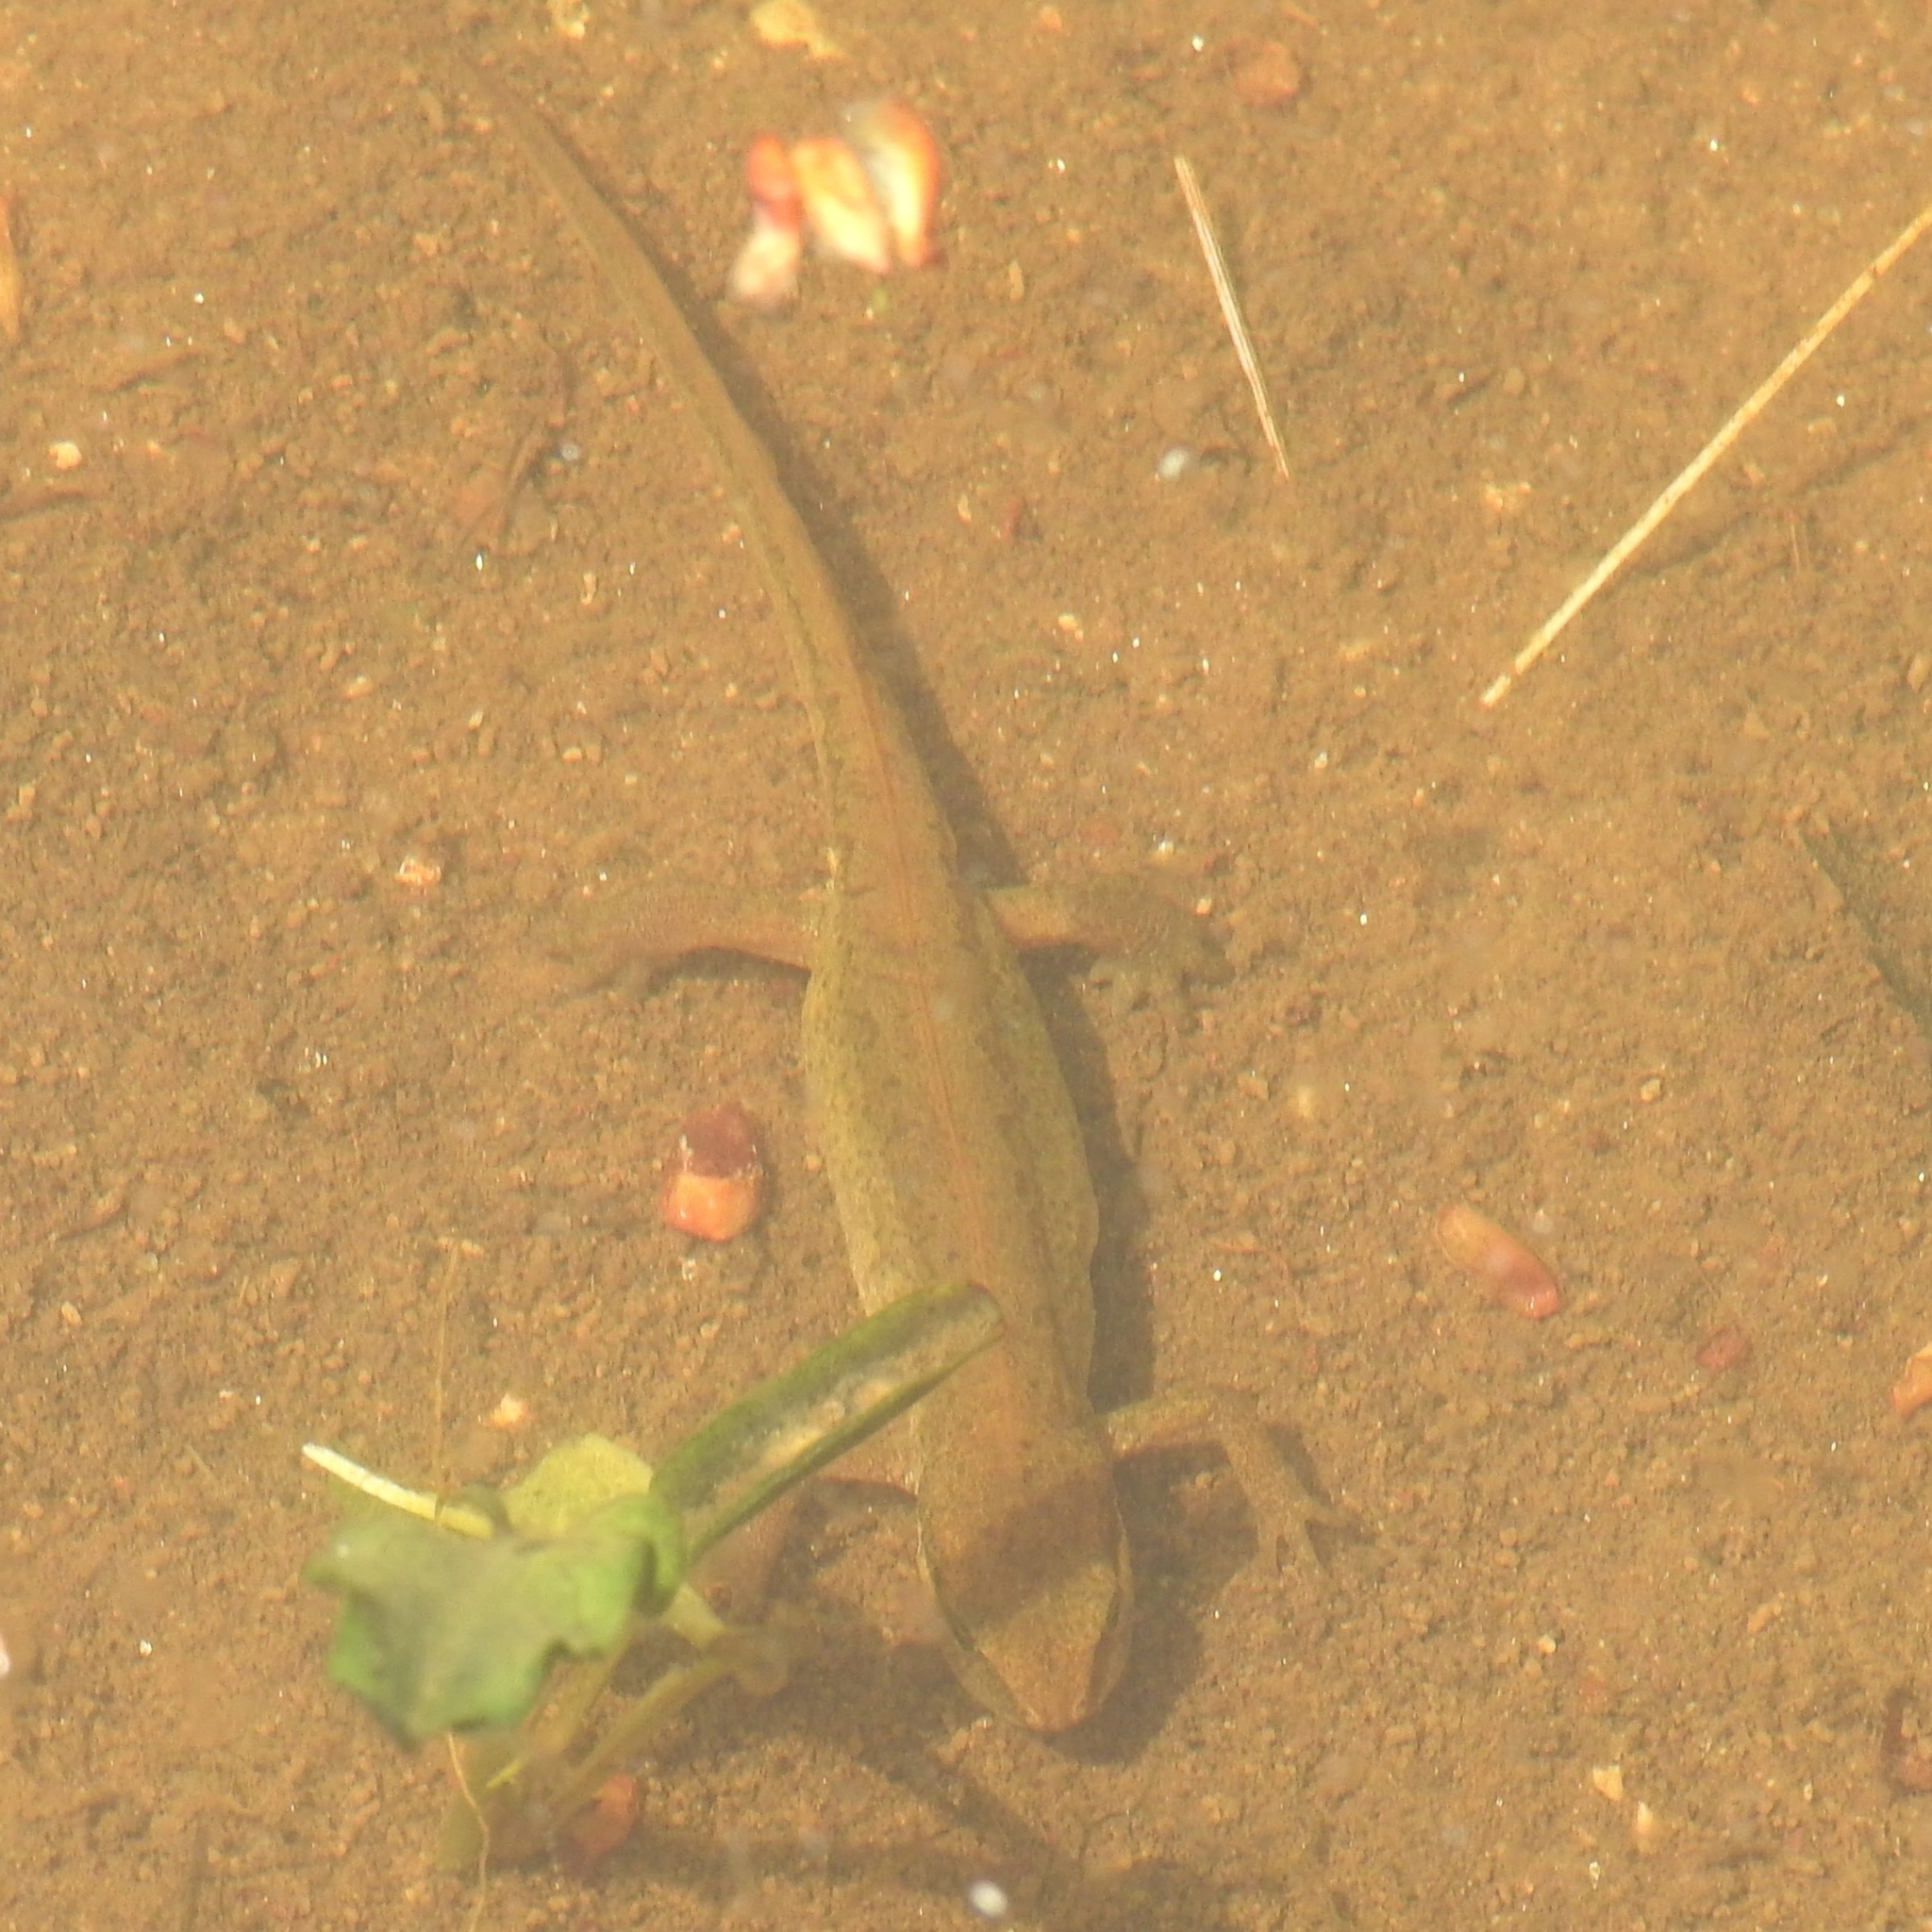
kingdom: Animalia
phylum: Chordata
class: Amphibia
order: Caudata
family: Salamandridae
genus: Lissotriton
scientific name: Lissotriton helveticus
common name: Palmate newt
